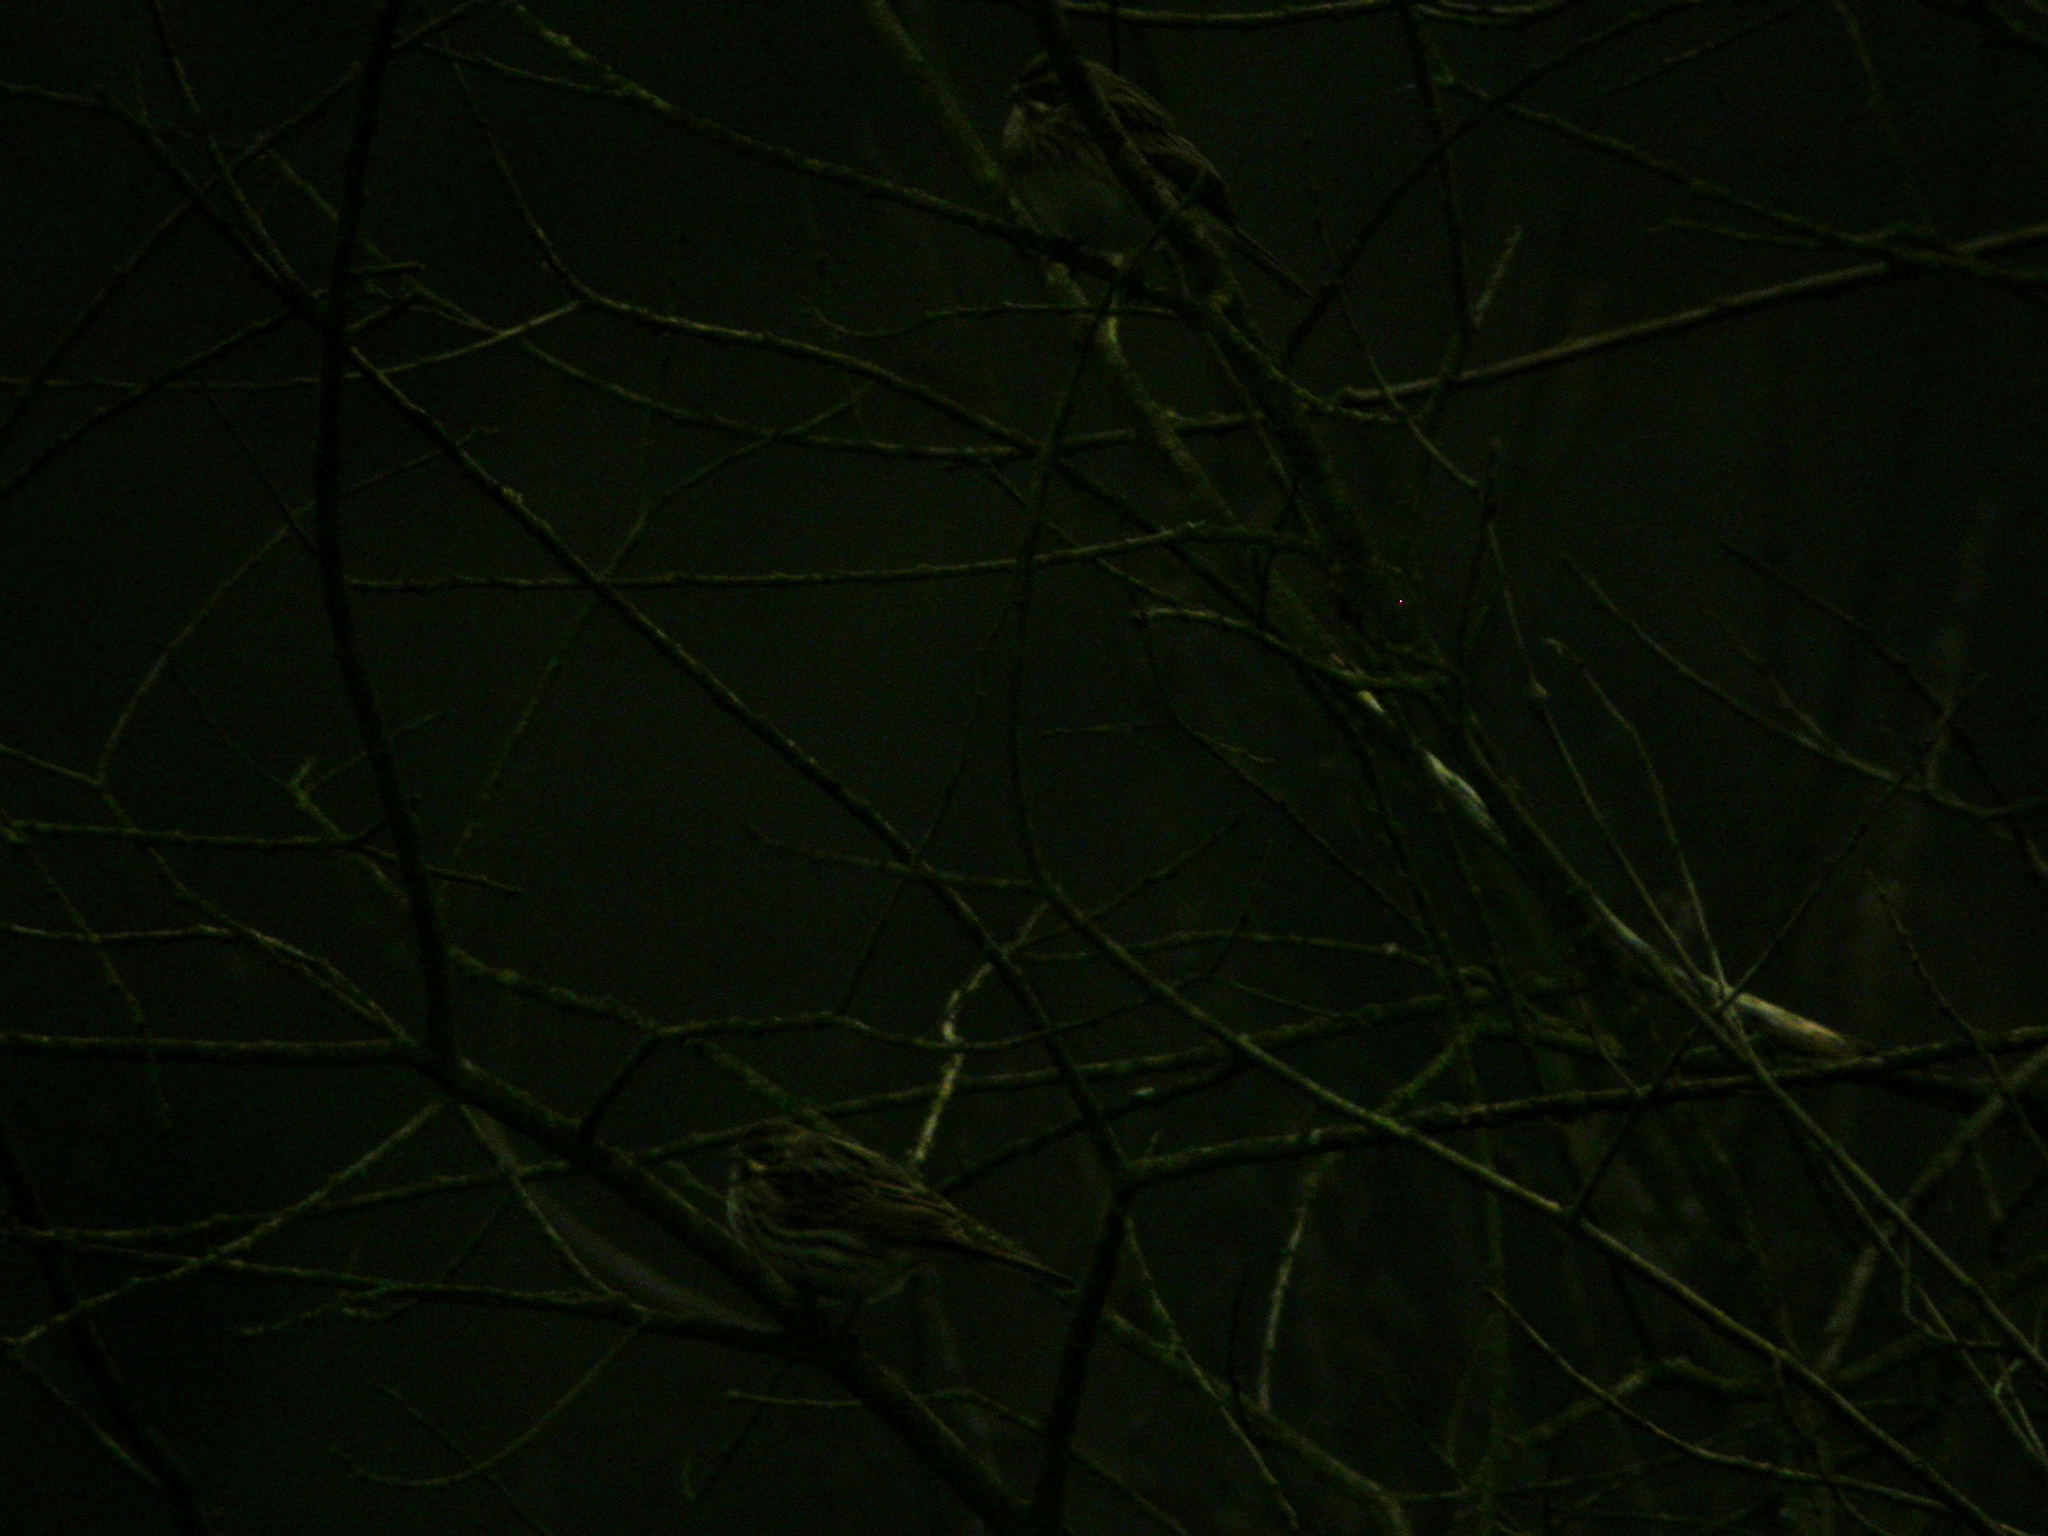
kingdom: Animalia
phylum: Chordata
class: Aves
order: Passeriformes
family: Emberizidae
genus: Emberiza
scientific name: Emberiza schoeniclus
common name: Reed bunting
